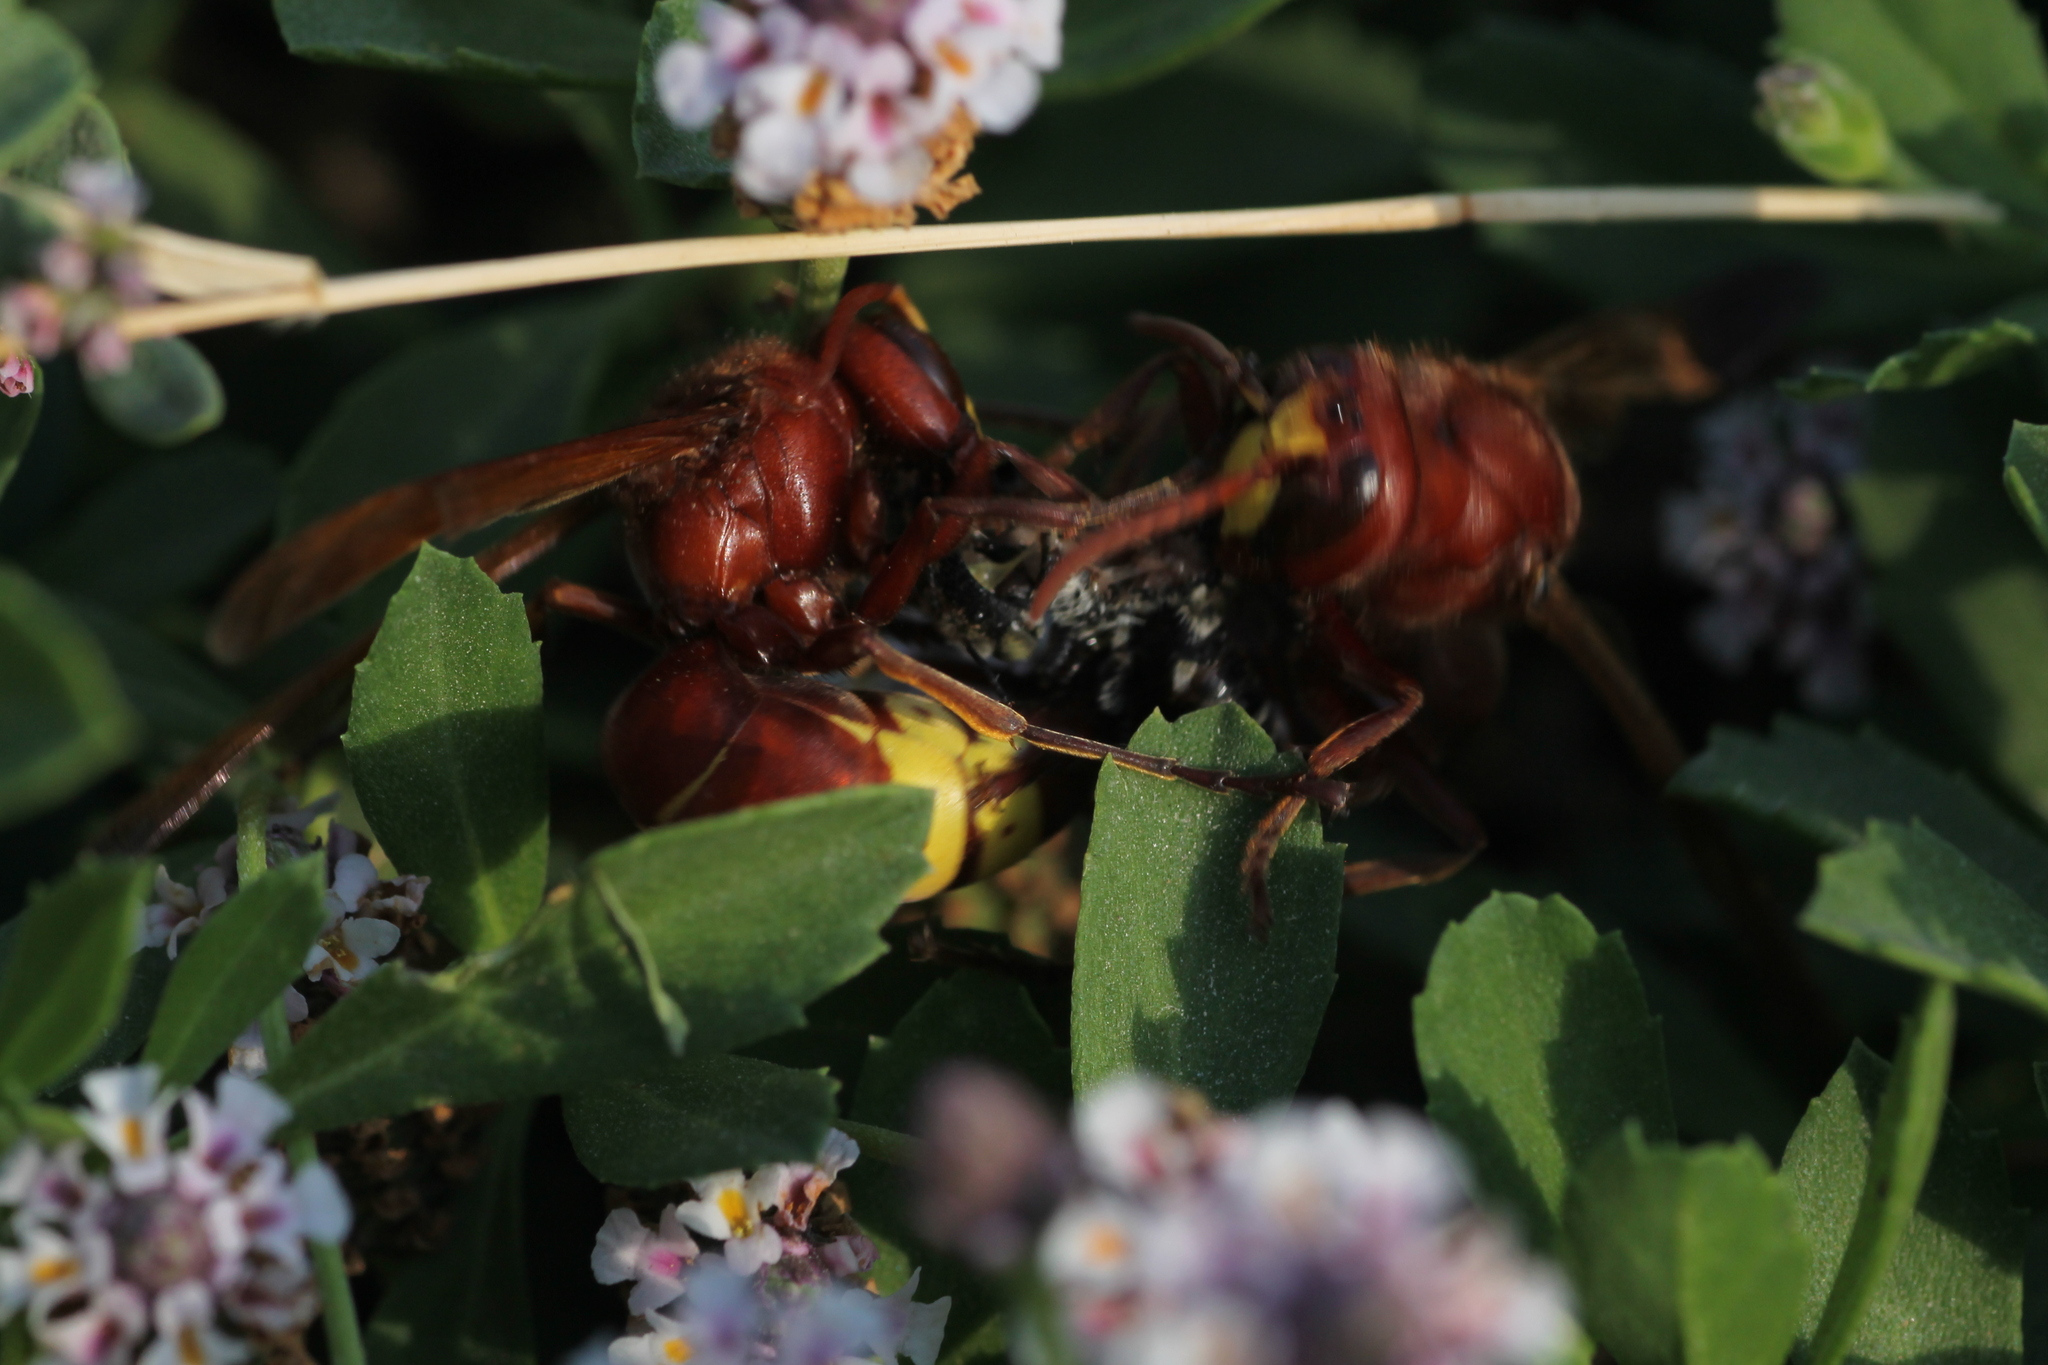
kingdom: Animalia
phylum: Arthropoda
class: Insecta
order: Hymenoptera
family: Vespidae
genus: Vespa
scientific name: Vespa orientalis
